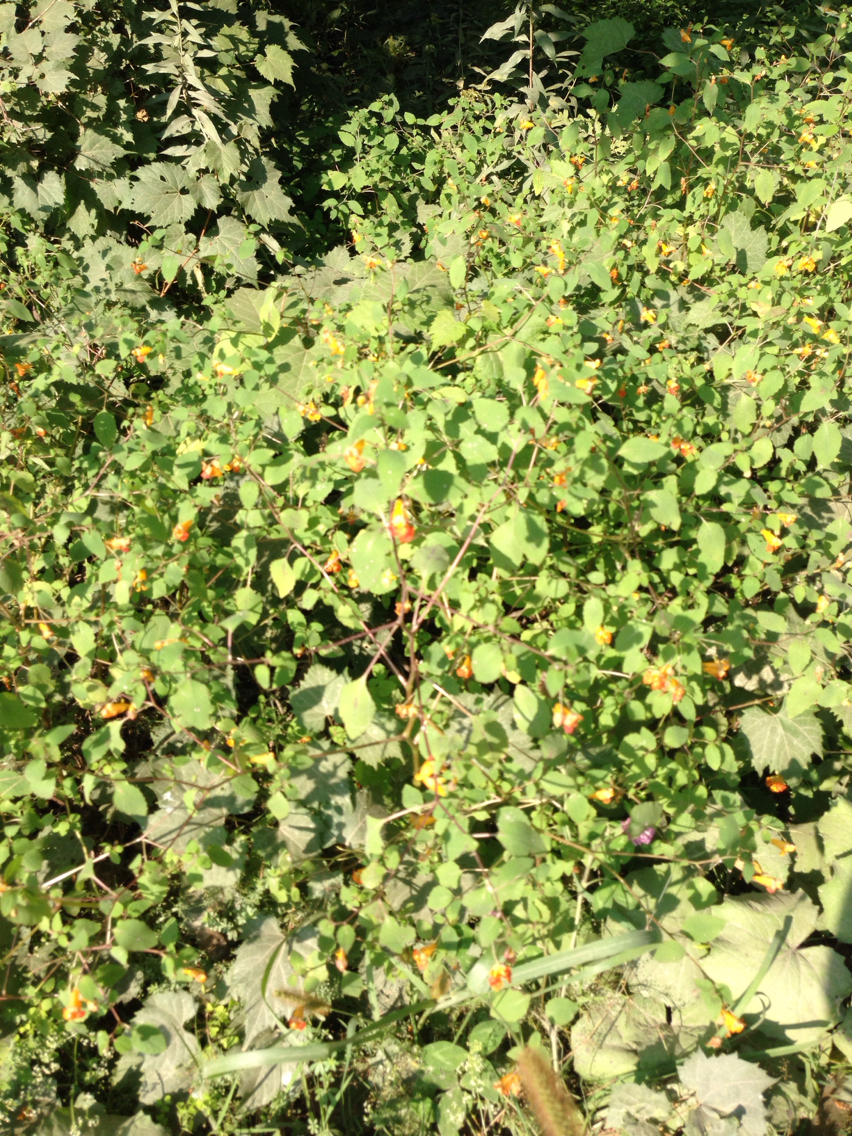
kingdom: Plantae
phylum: Tracheophyta
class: Magnoliopsida
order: Ericales
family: Balsaminaceae
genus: Impatiens
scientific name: Impatiens capensis
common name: Orange balsam
